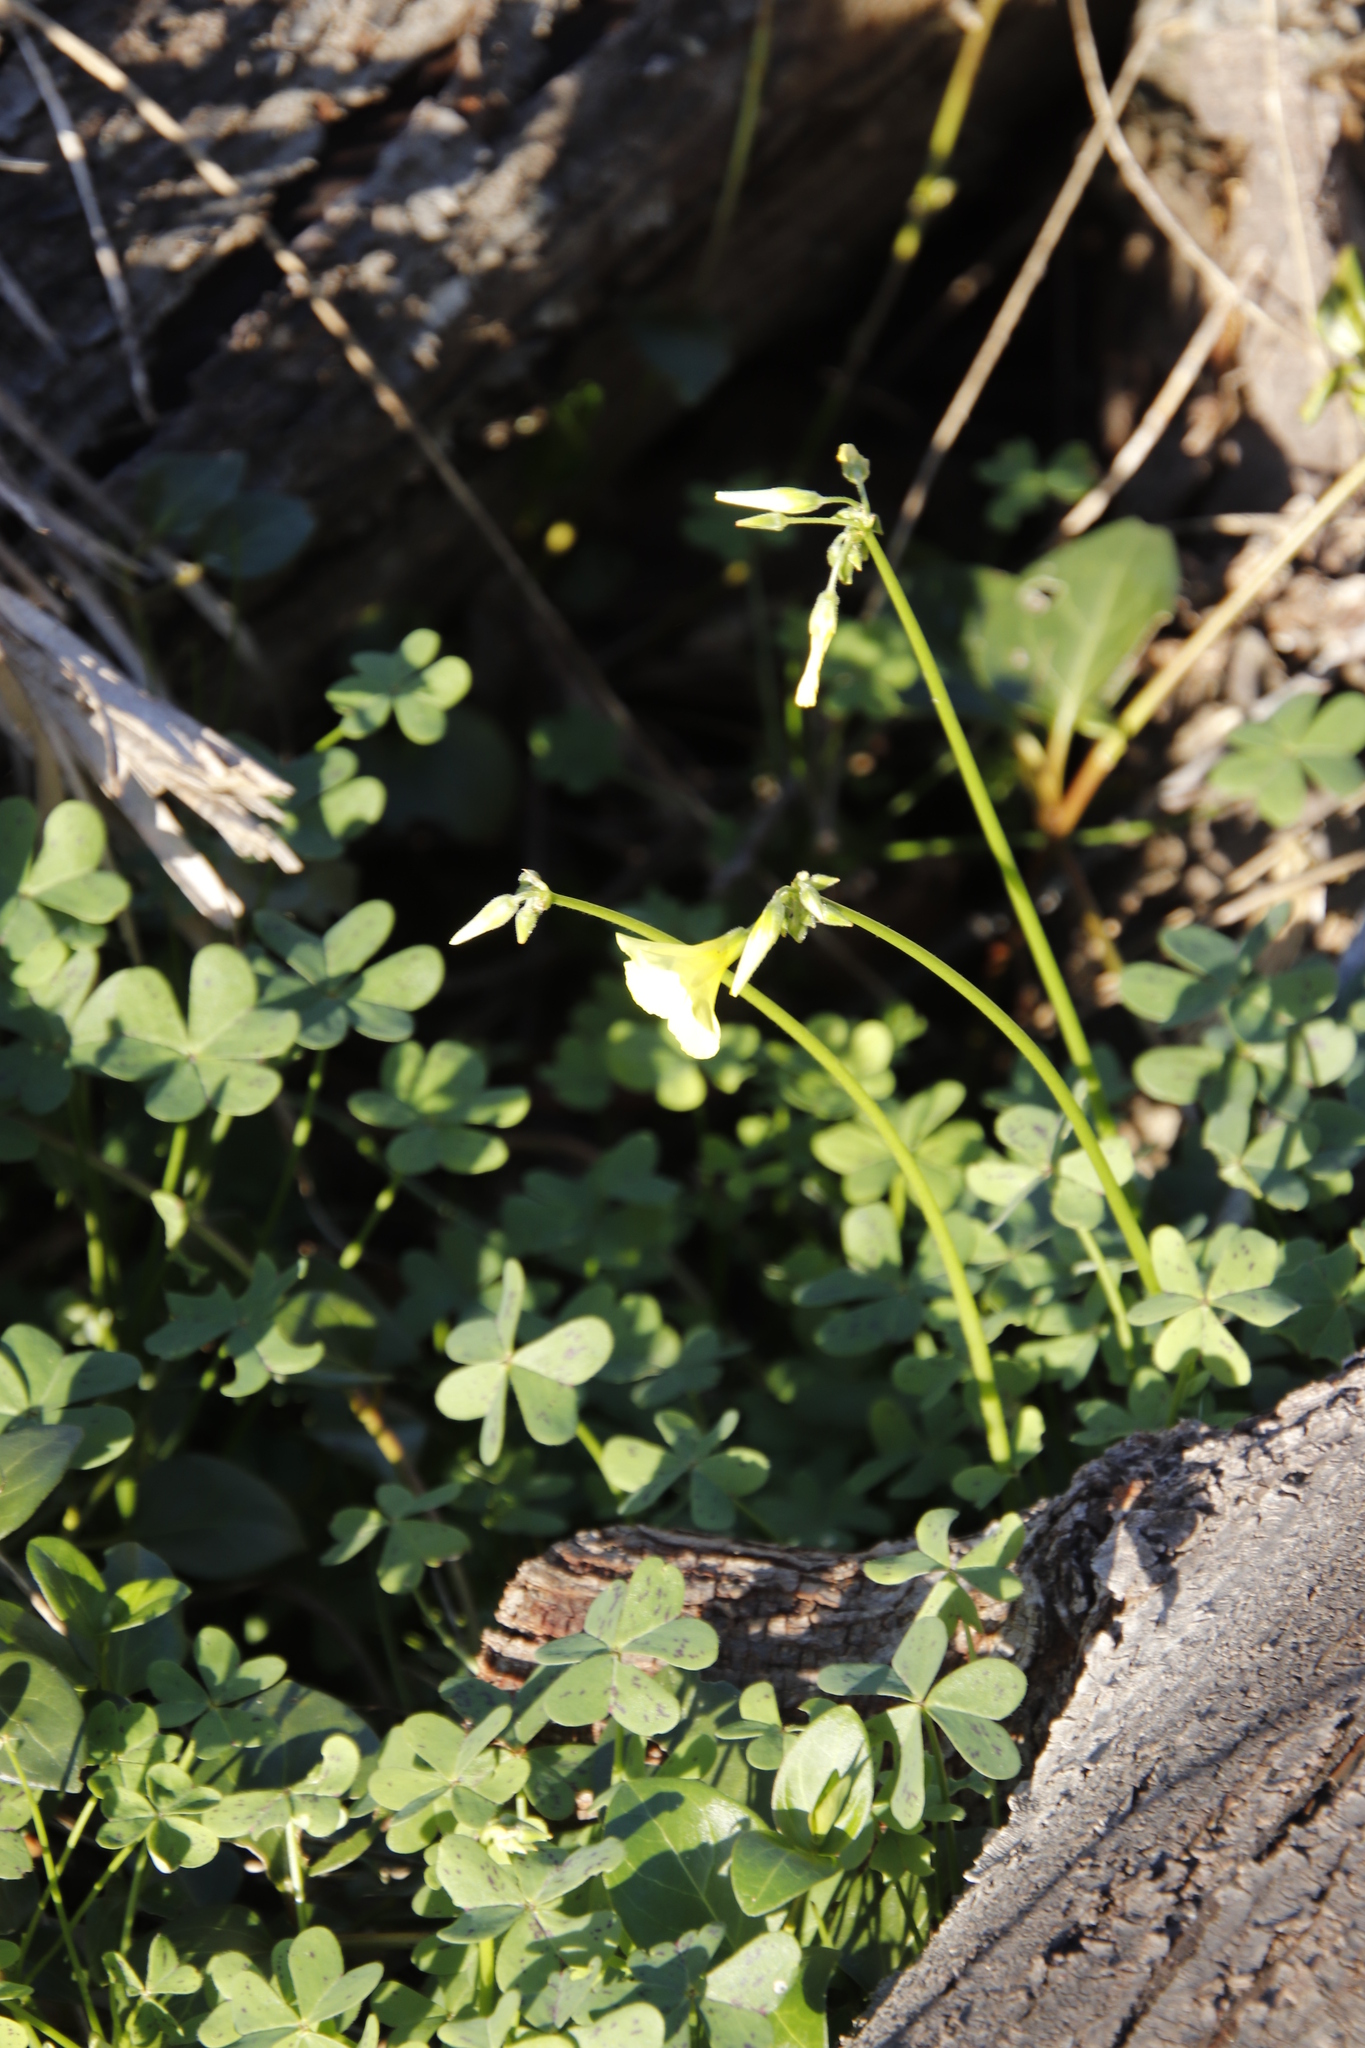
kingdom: Plantae
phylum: Tracheophyta
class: Magnoliopsida
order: Oxalidales
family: Oxalidaceae
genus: Oxalis
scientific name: Oxalis pes-caprae
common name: Bermuda-buttercup
